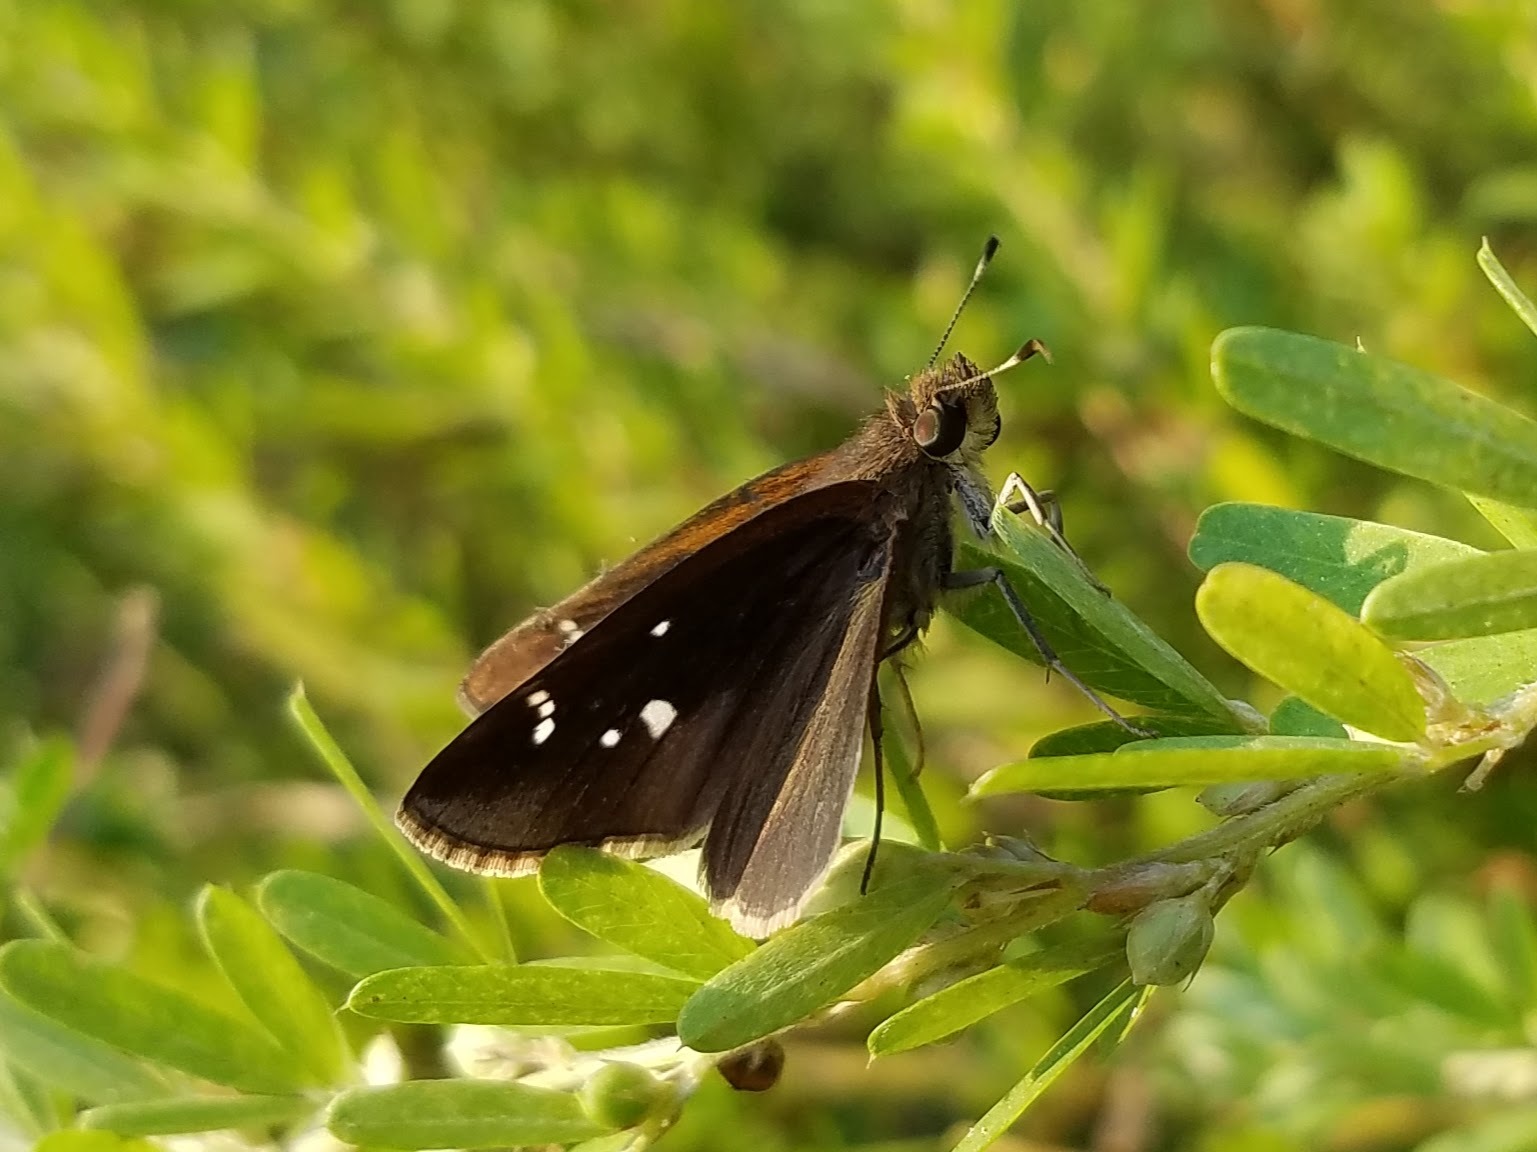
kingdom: Animalia
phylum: Arthropoda
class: Insecta
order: Lepidoptera
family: Hesperiidae
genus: Lerema
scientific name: Lerema accius
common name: Clouded skipper
